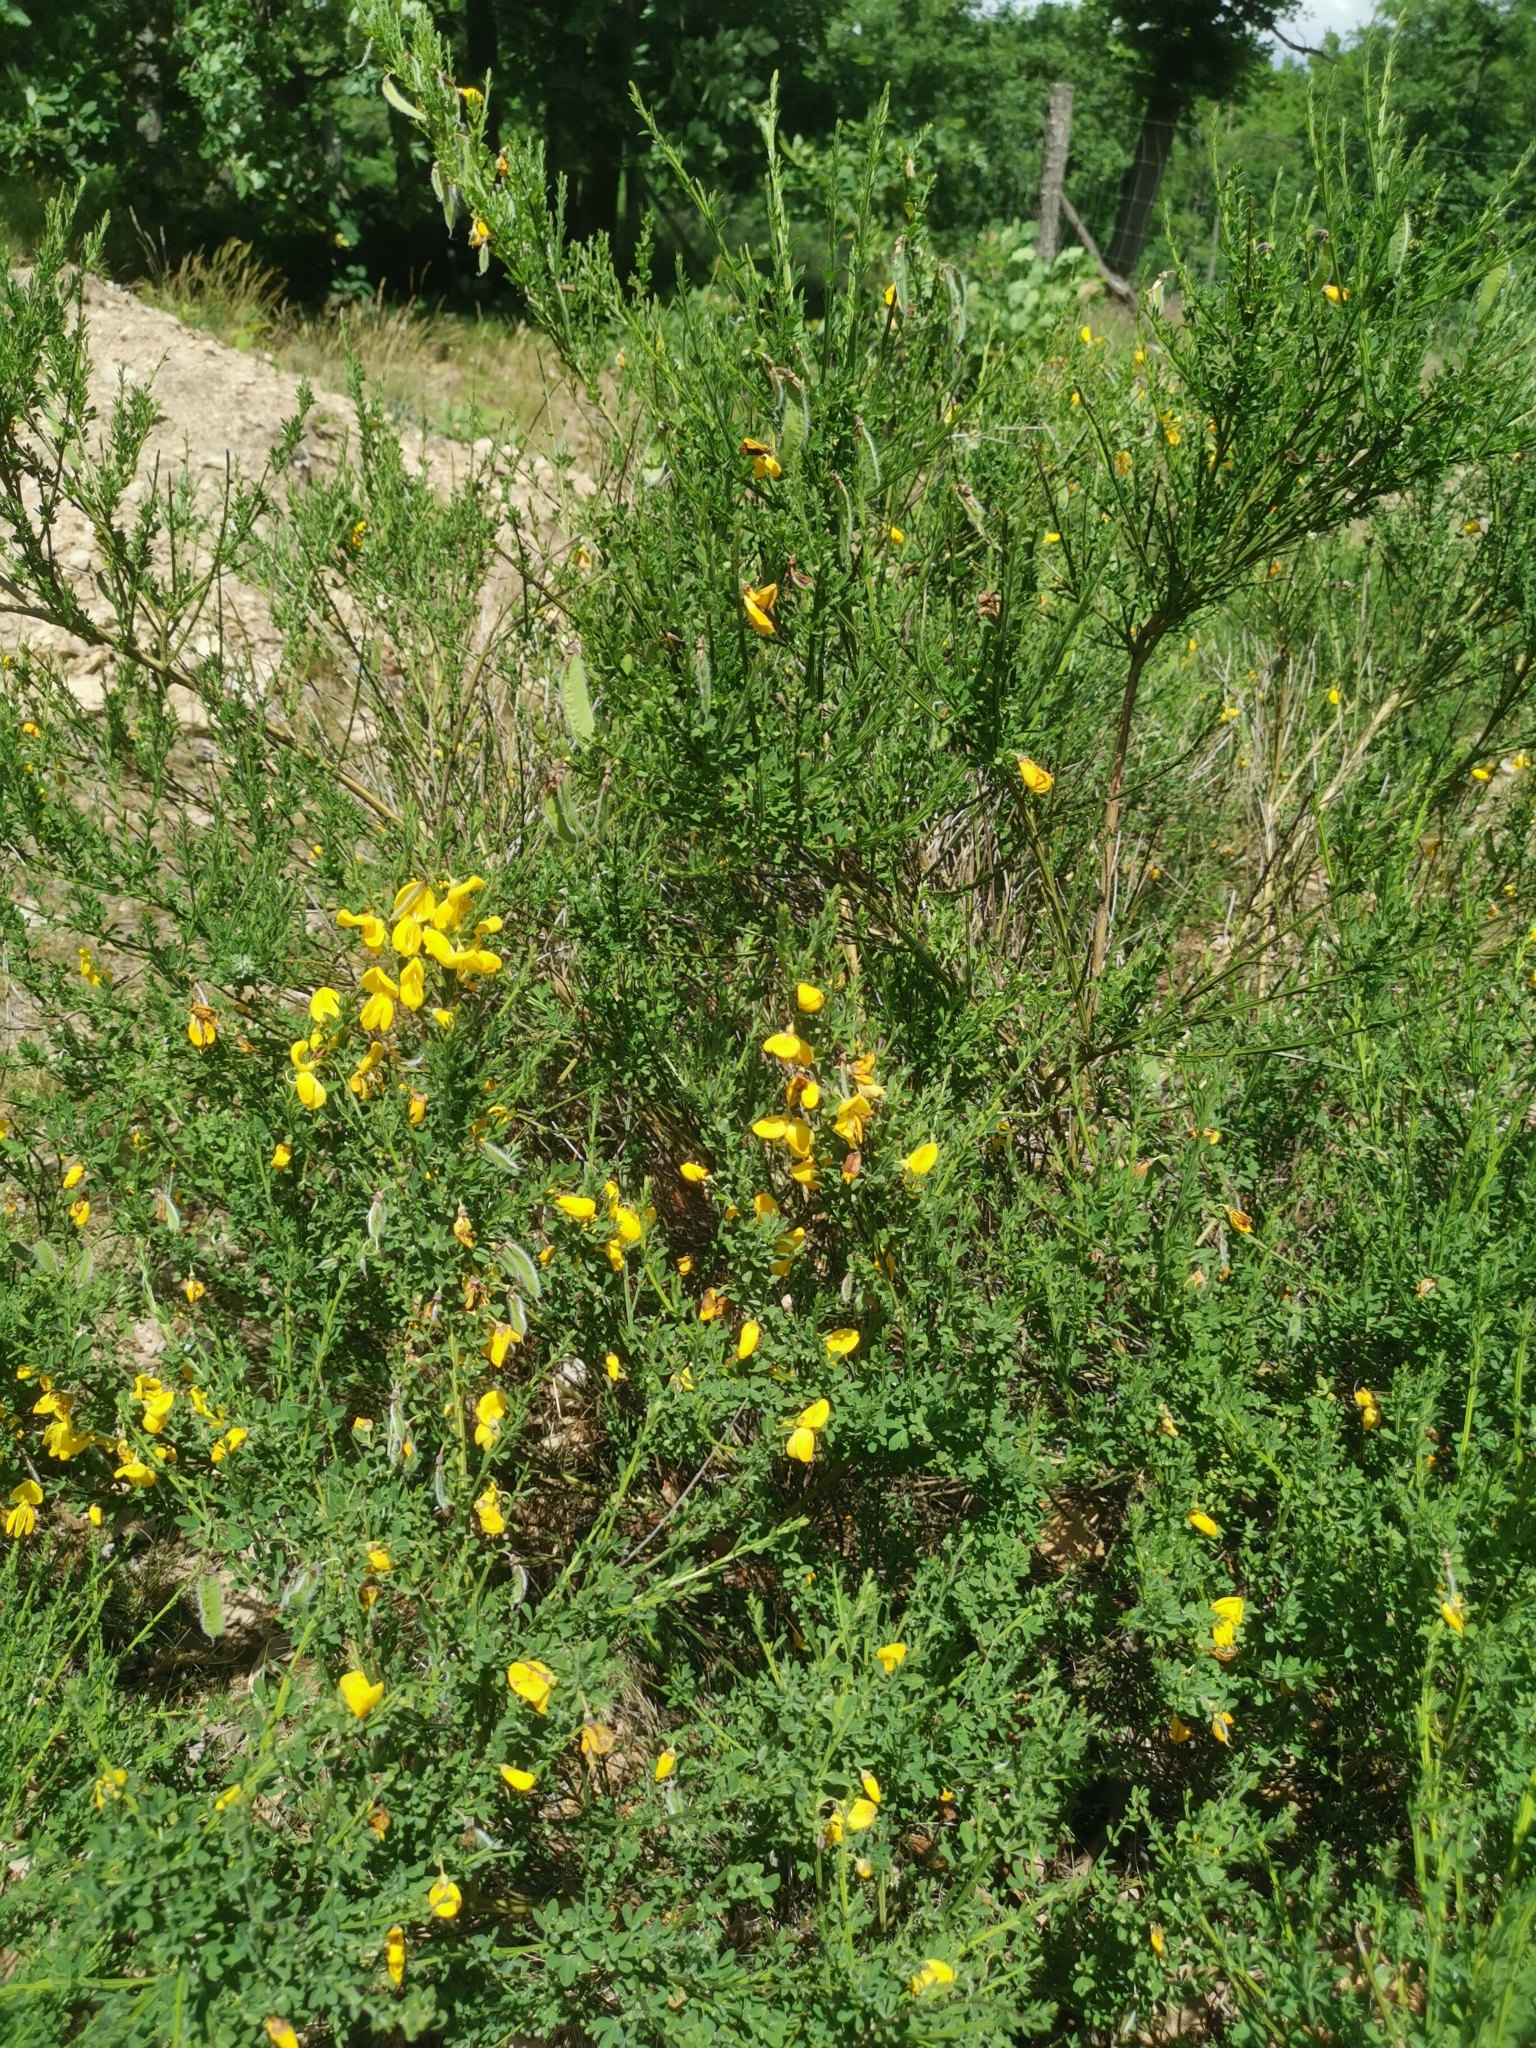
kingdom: Plantae
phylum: Tracheophyta
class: Magnoliopsida
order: Fabales
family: Fabaceae
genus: Cytisus
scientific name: Cytisus scoparius
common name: Scotch broom
